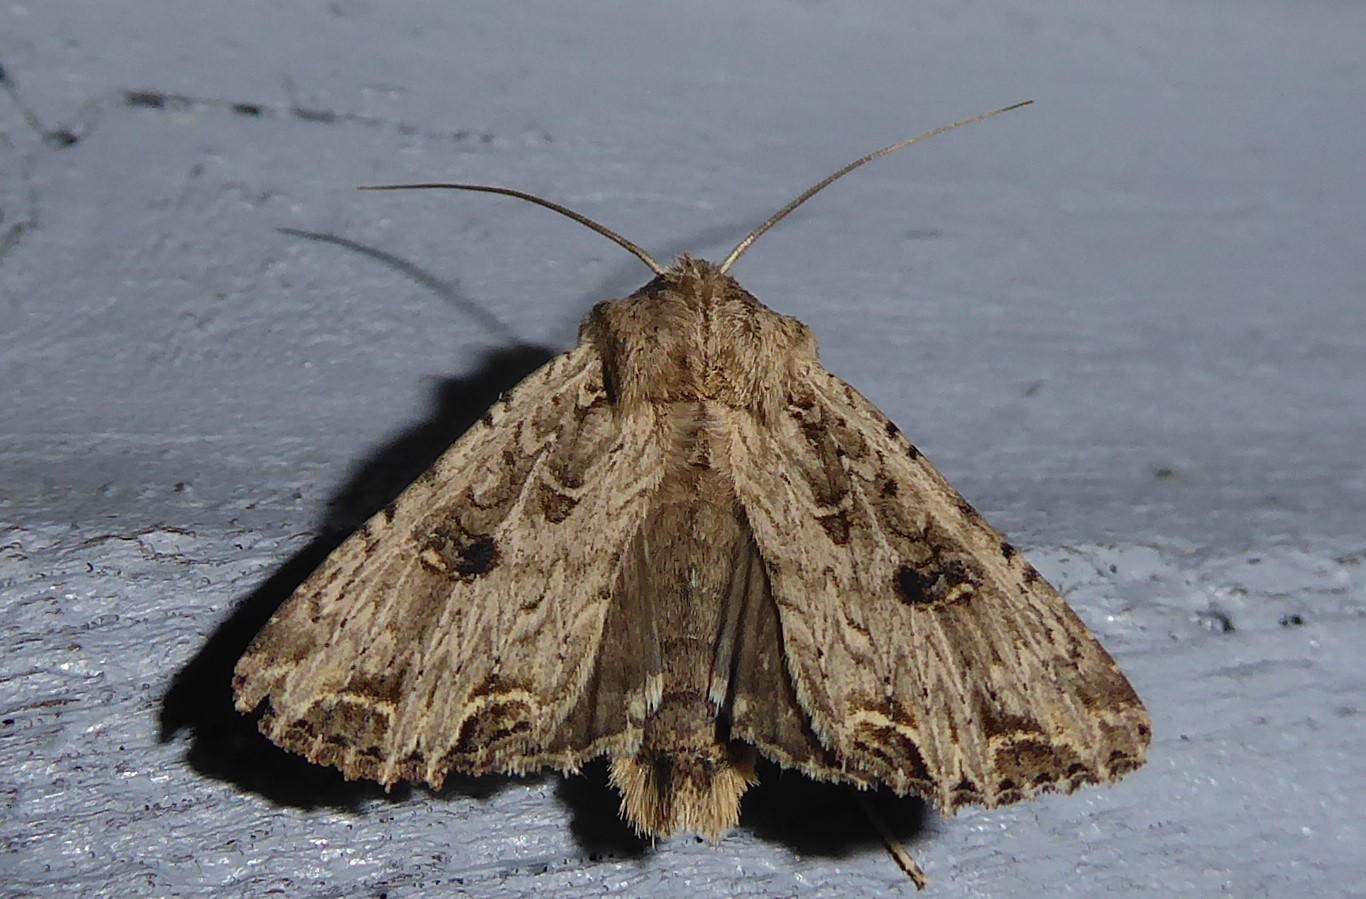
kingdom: Animalia
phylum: Arthropoda
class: Insecta
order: Lepidoptera
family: Noctuidae
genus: Ichneutica
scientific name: Ichneutica lignana
